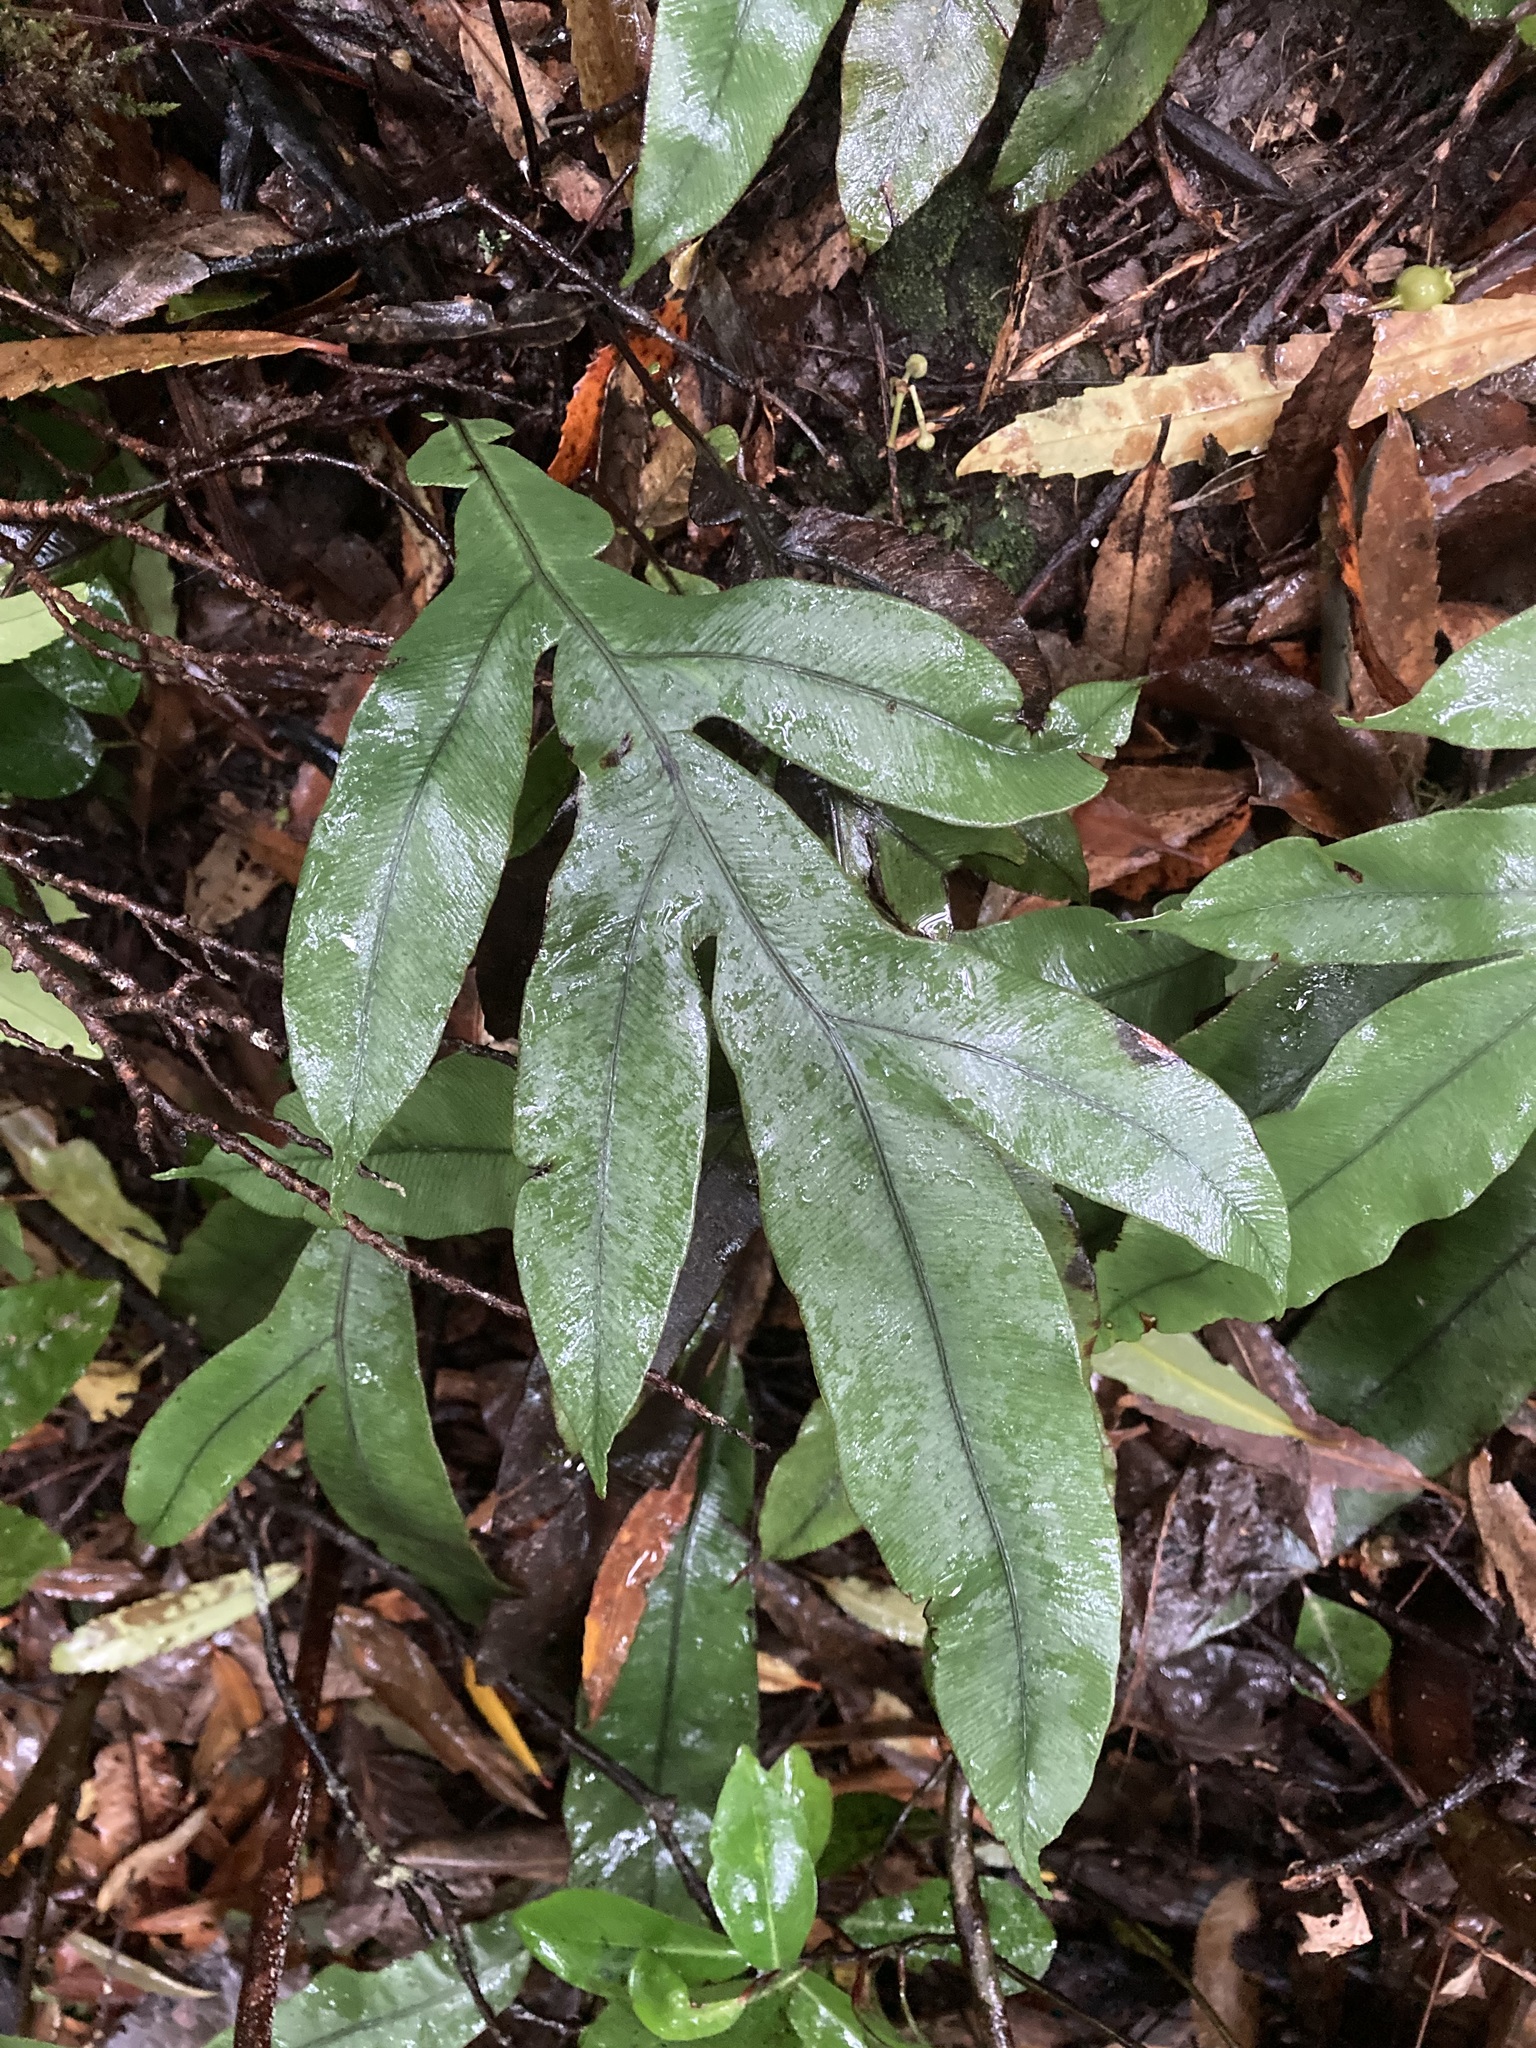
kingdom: Plantae
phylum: Tracheophyta
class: Polypodiopsida
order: Polypodiales
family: Blechnaceae
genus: Austroblechnum
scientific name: Austroblechnum colensoi
